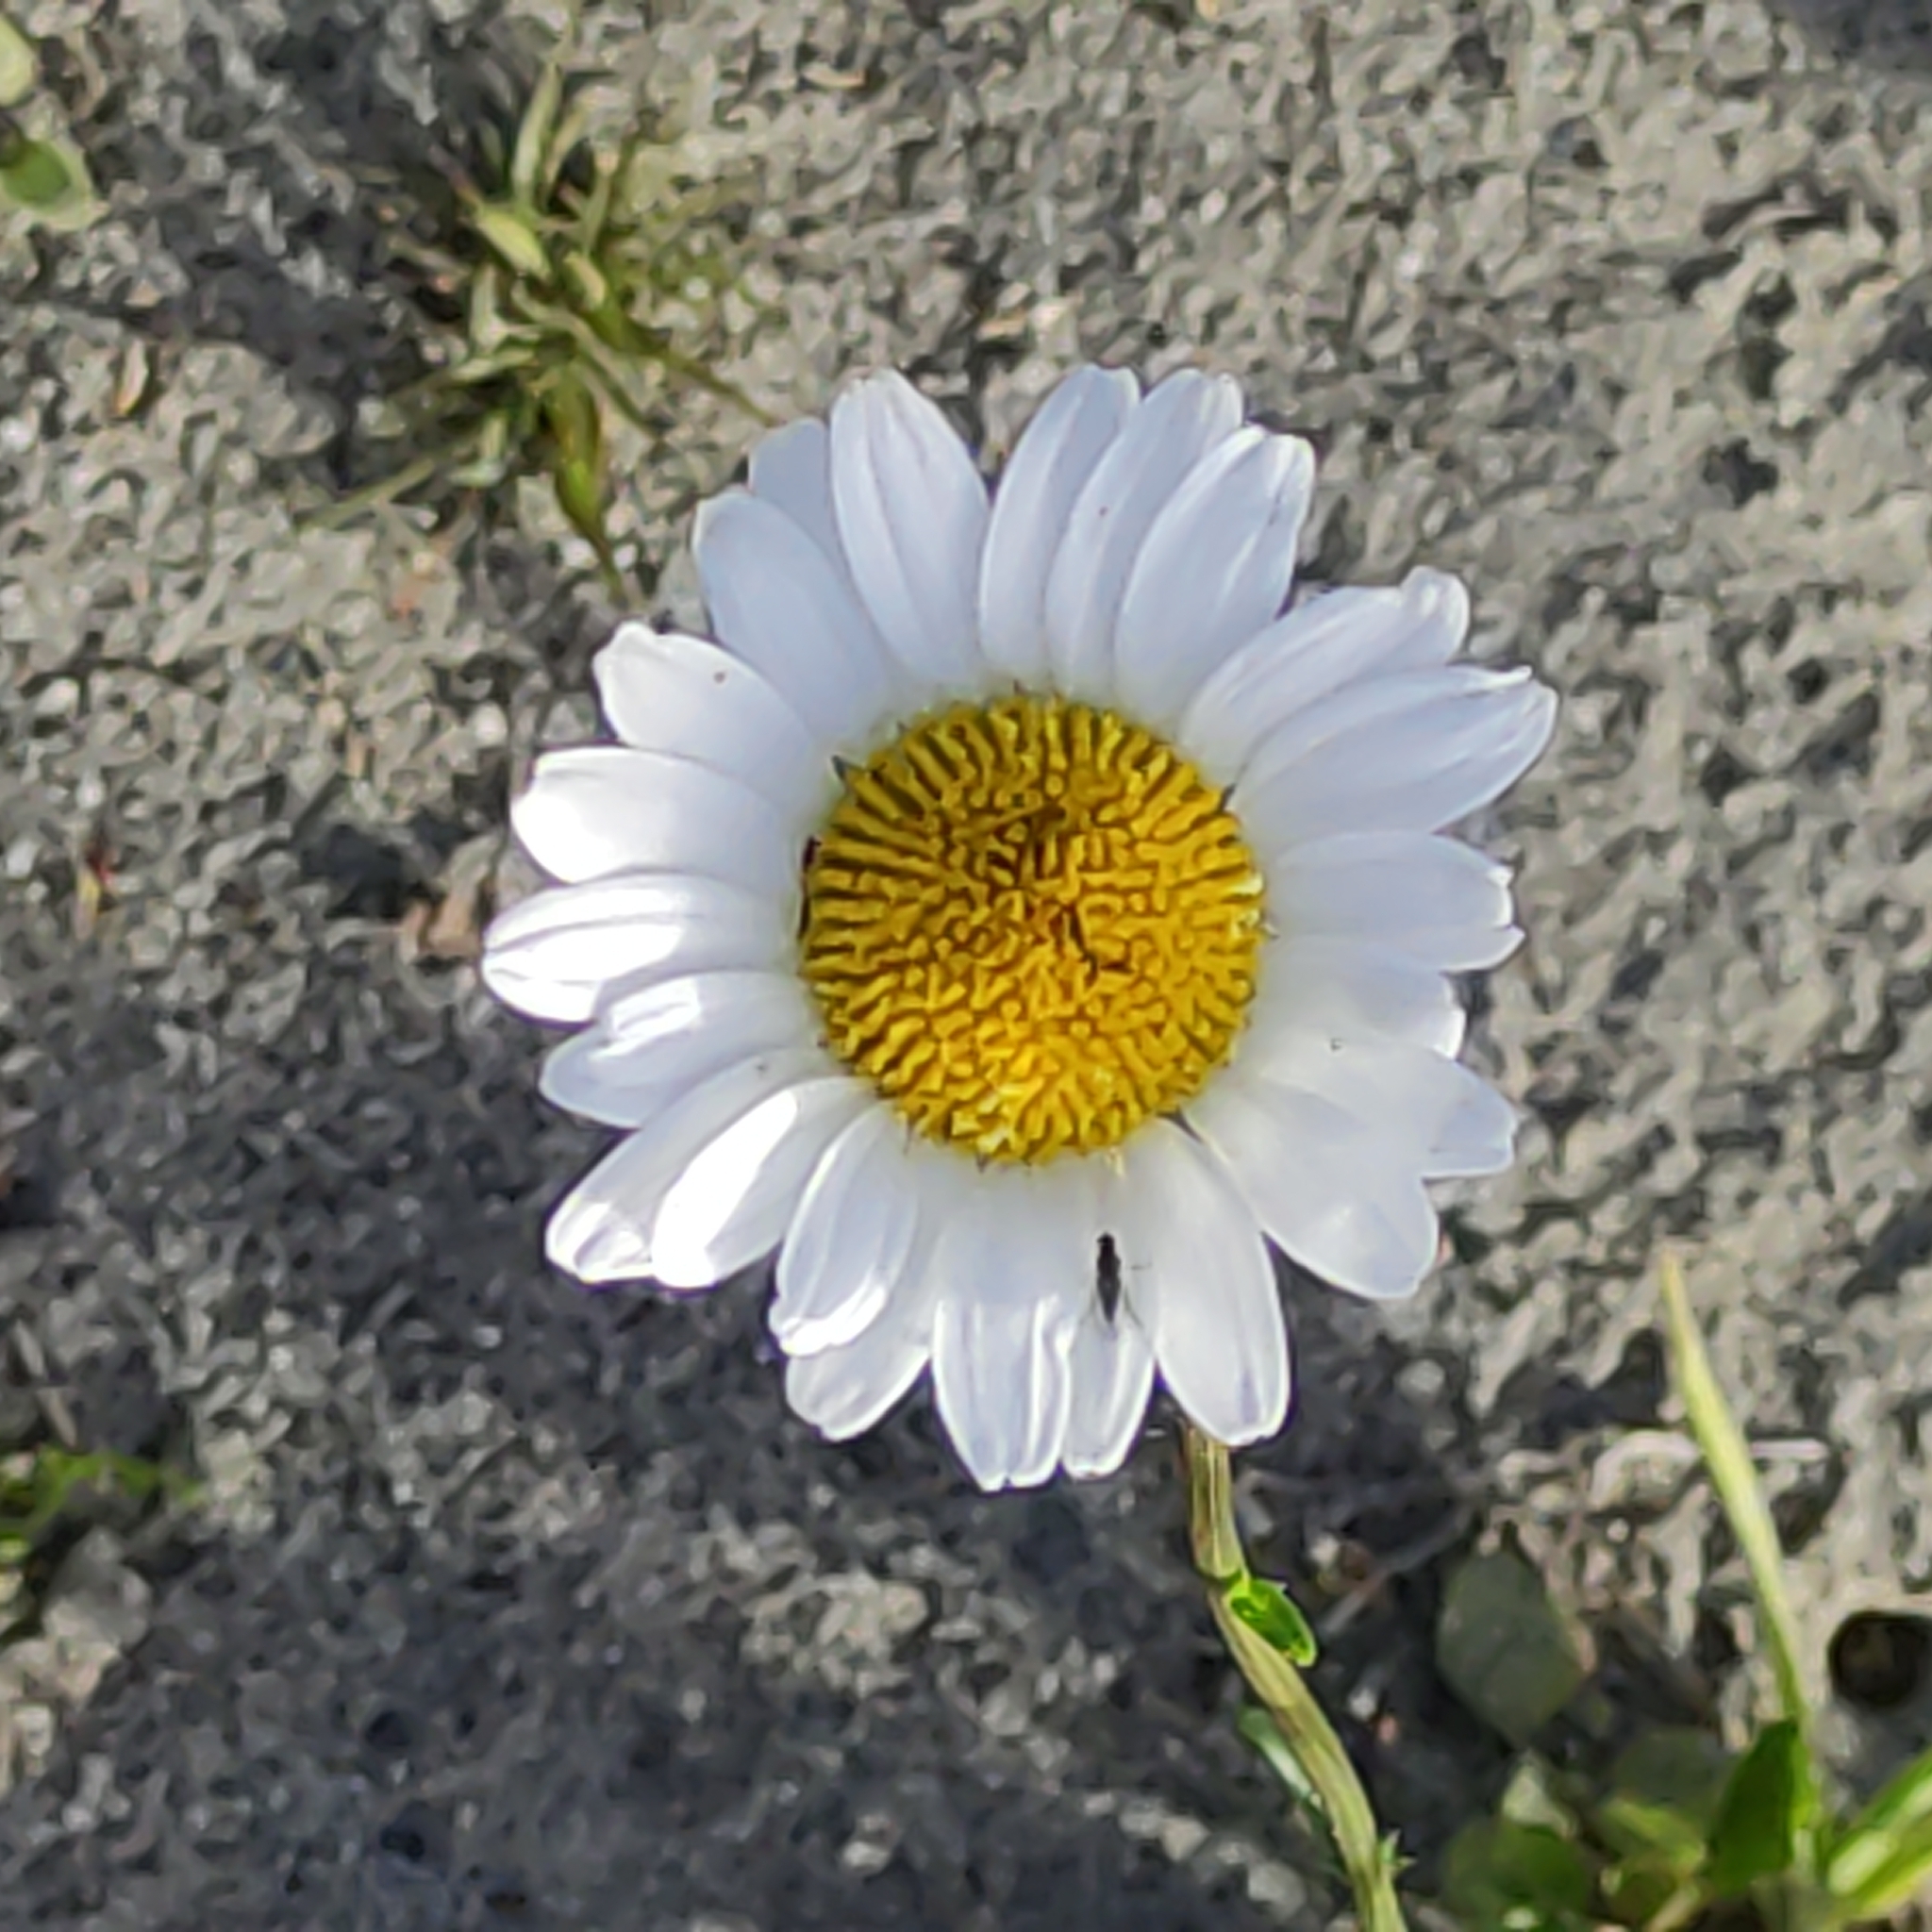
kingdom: Plantae
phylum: Tracheophyta
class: Magnoliopsida
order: Asterales
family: Asteraceae
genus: Leucanthemum
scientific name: Leucanthemum vulgare
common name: Oxeye daisy
